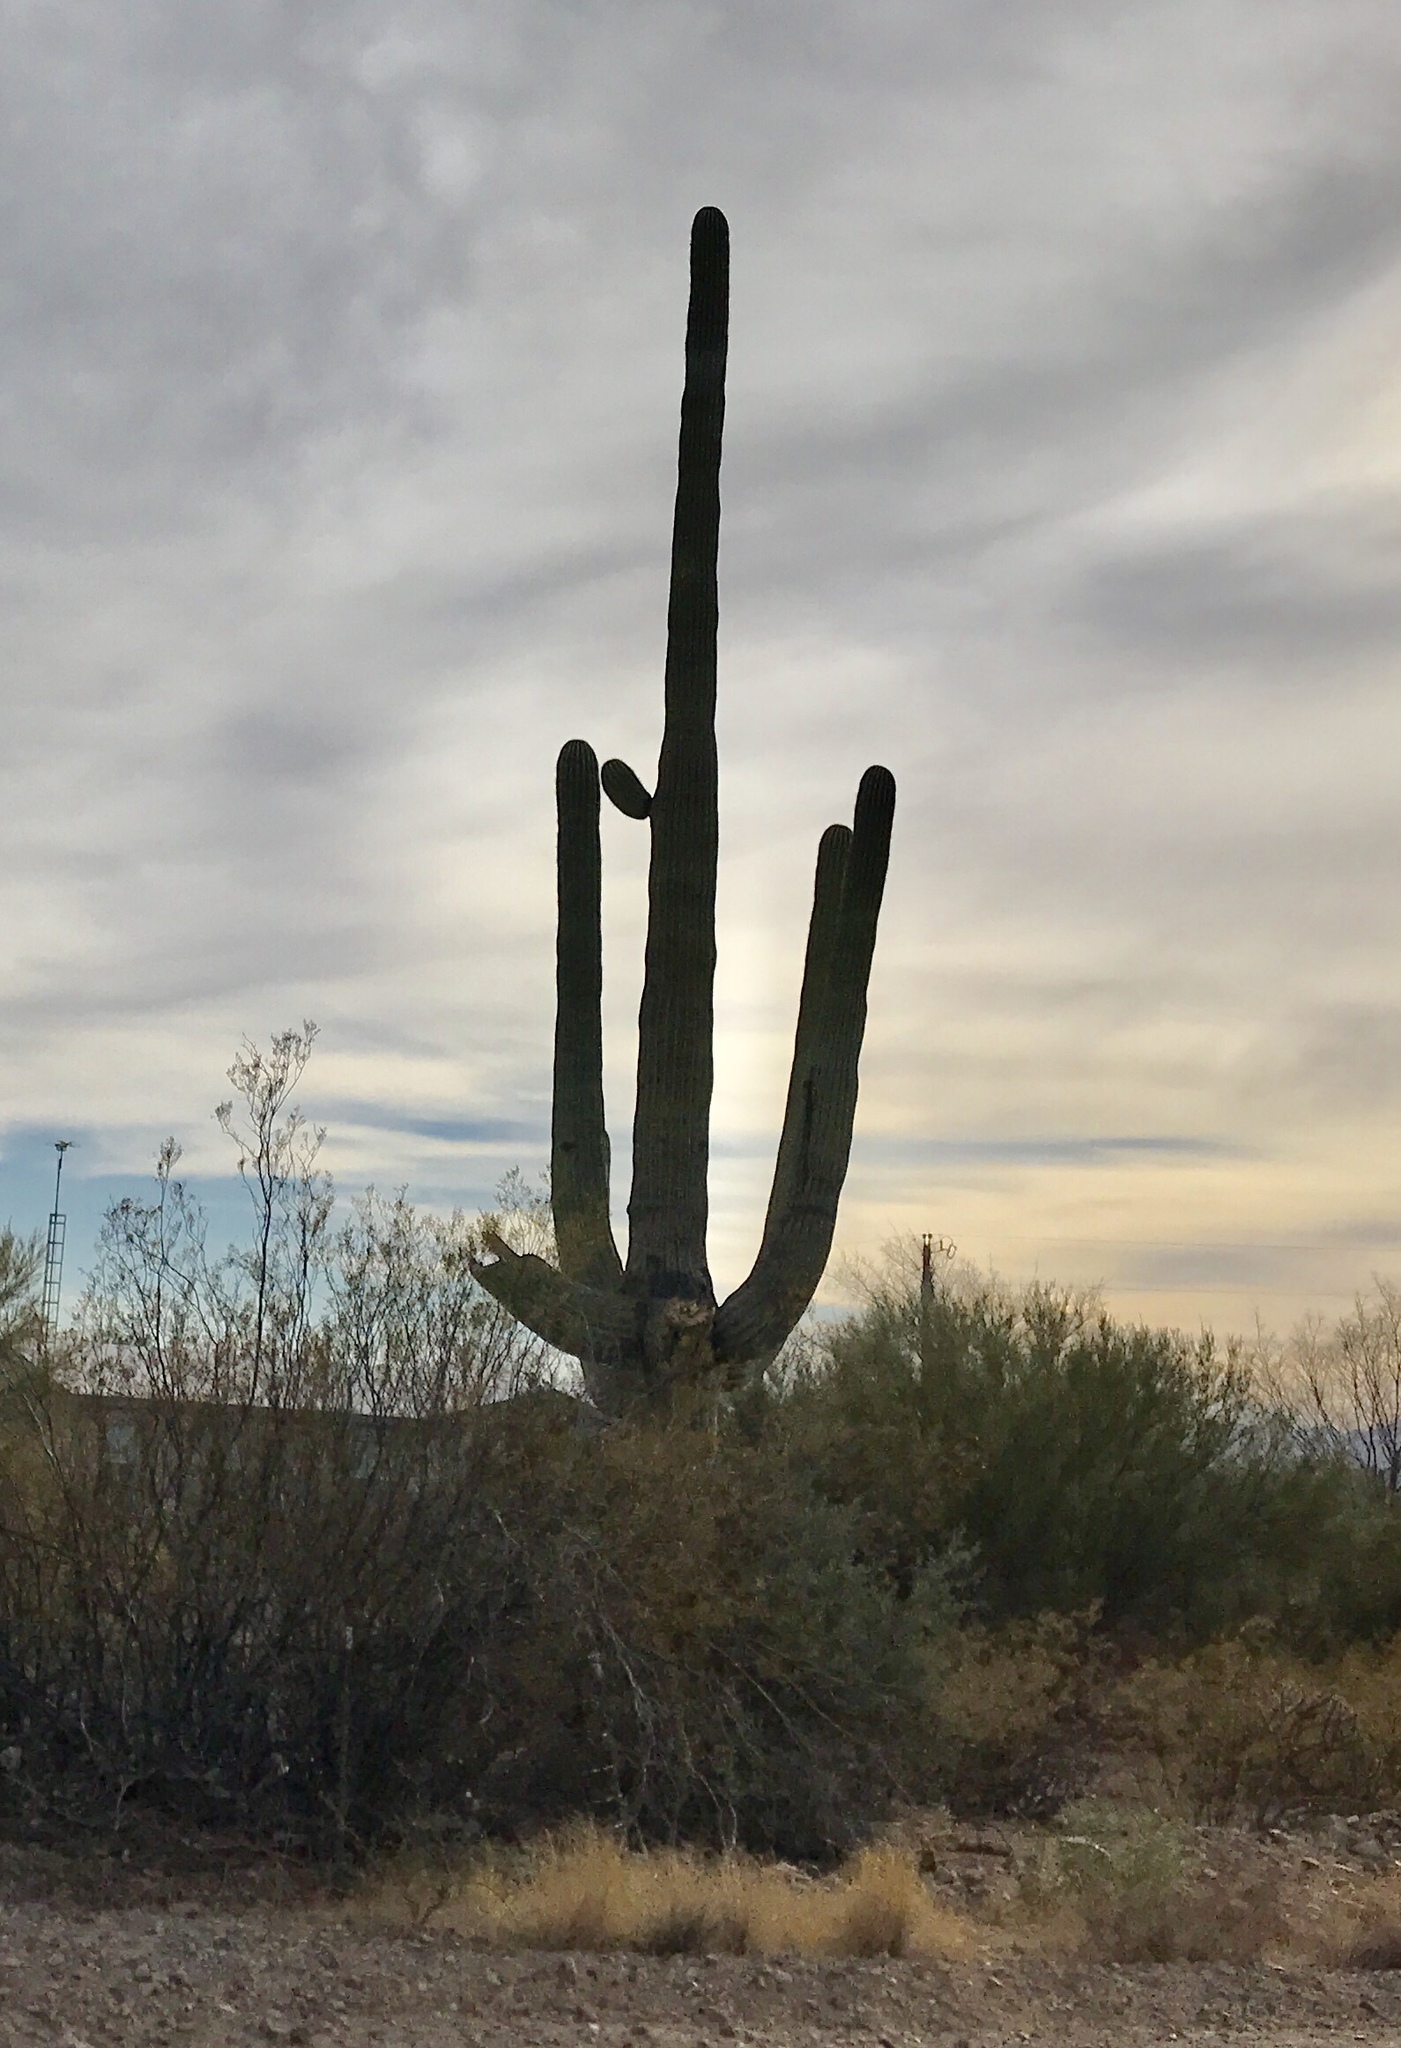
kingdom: Plantae
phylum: Tracheophyta
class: Magnoliopsida
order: Caryophyllales
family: Cactaceae
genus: Carnegiea
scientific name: Carnegiea gigantea
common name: Saguaro
